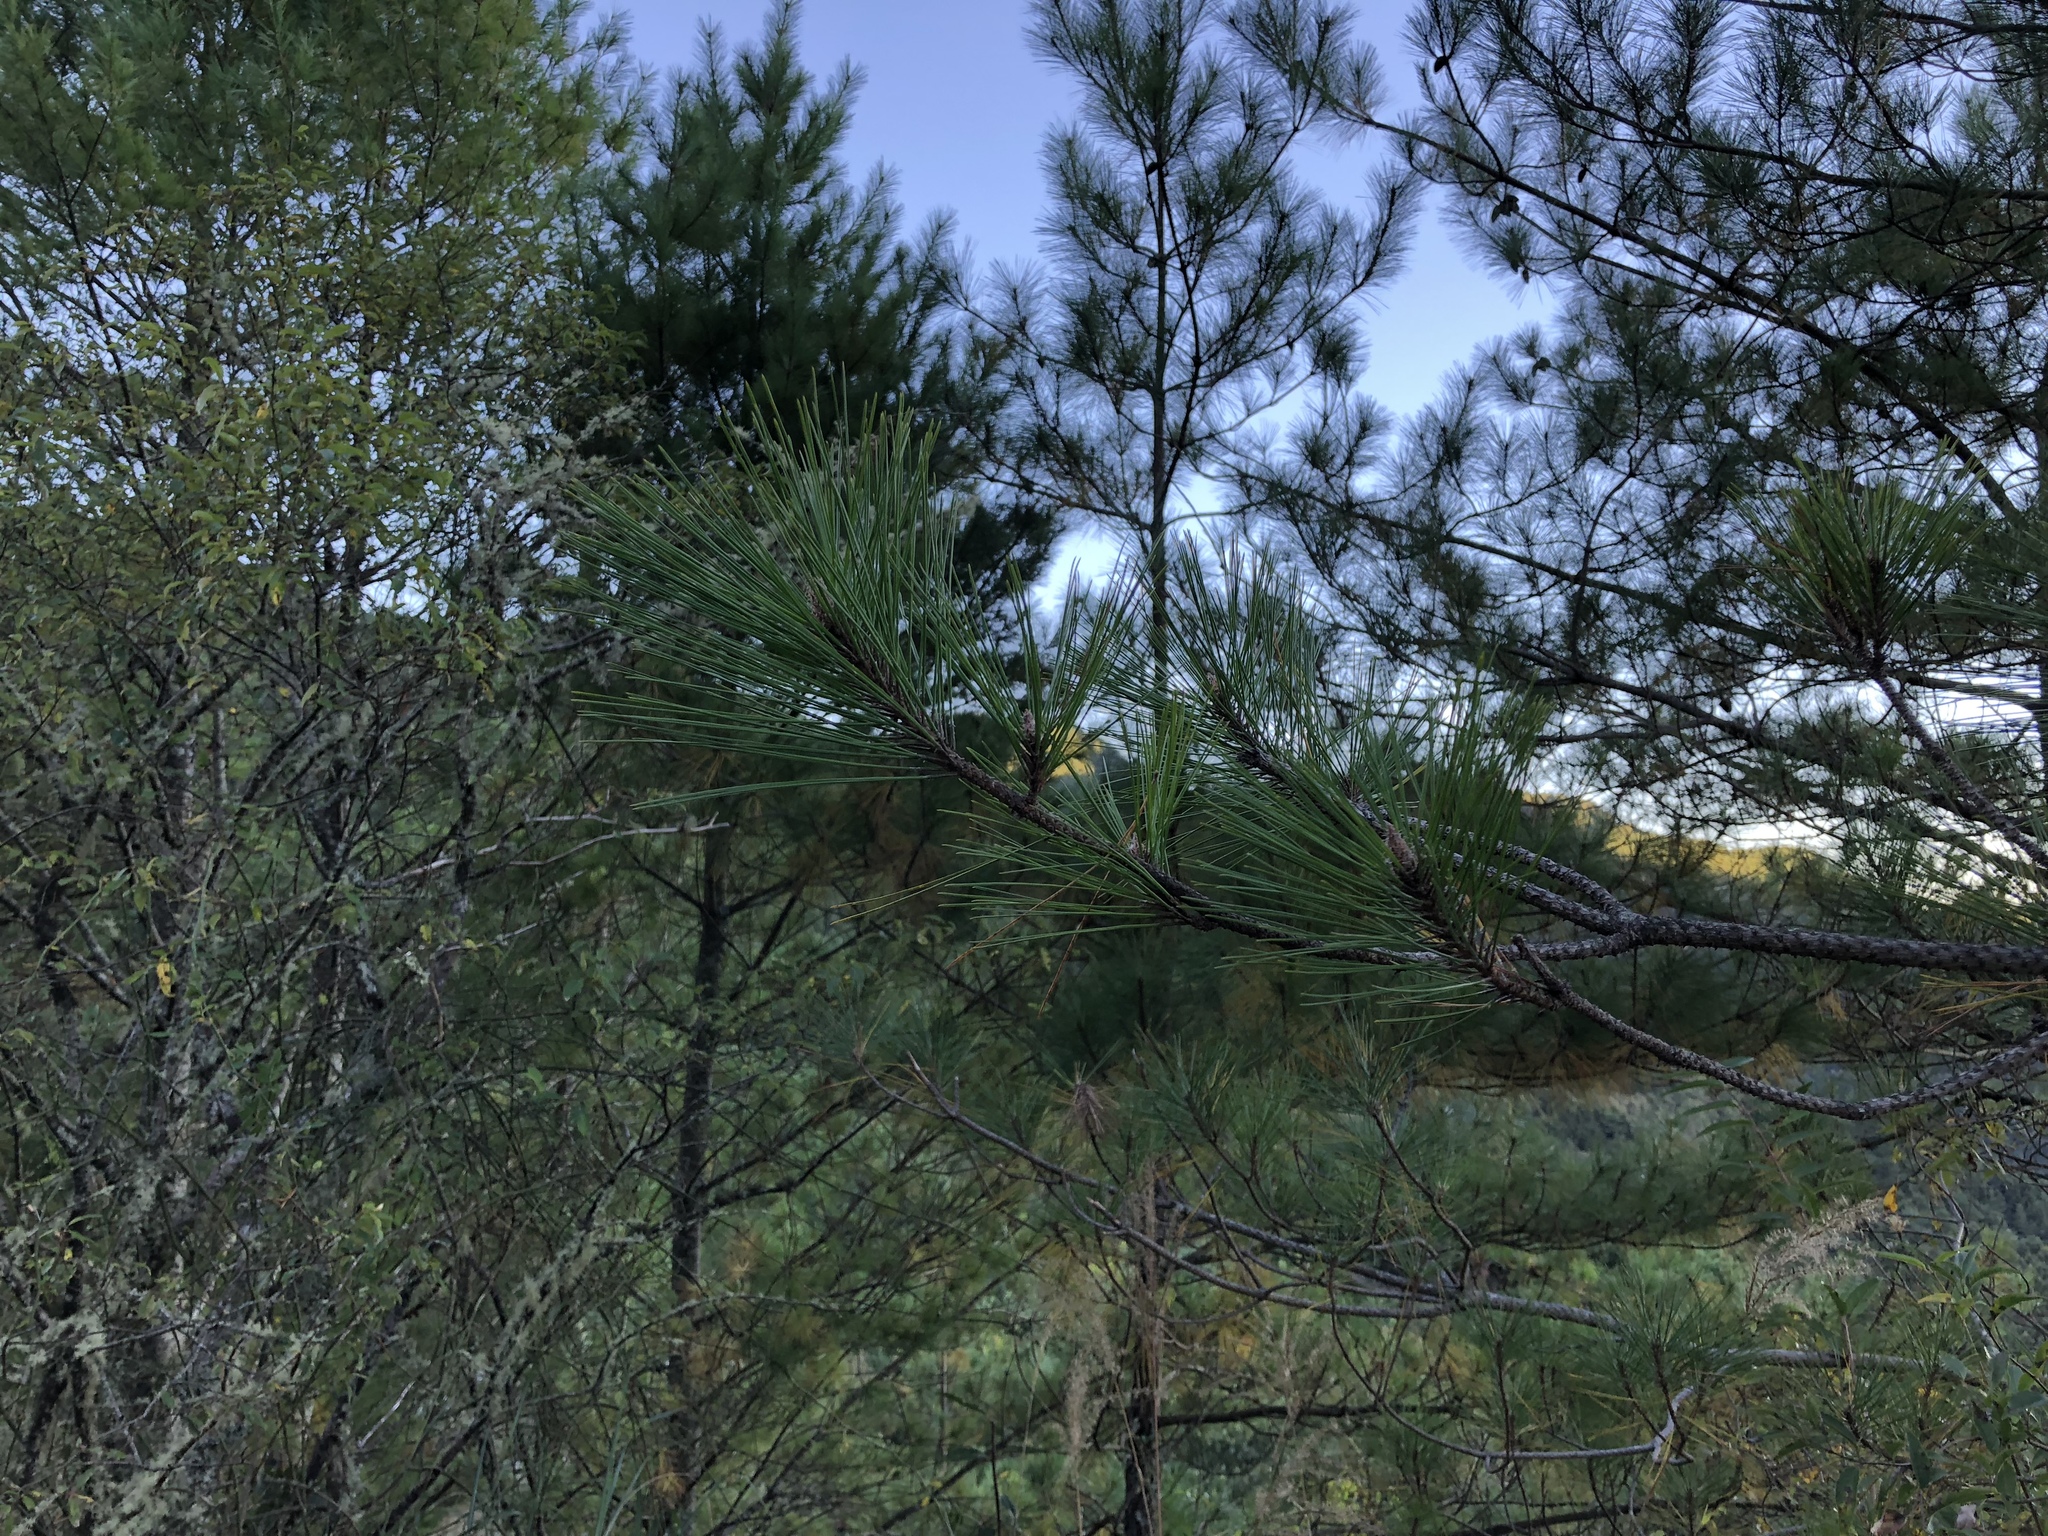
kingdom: Plantae
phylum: Tracheophyta
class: Pinopsida
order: Pinales
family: Pinaceae
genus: Pinus
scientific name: Pinus taiwanensis
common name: Formosa pine
